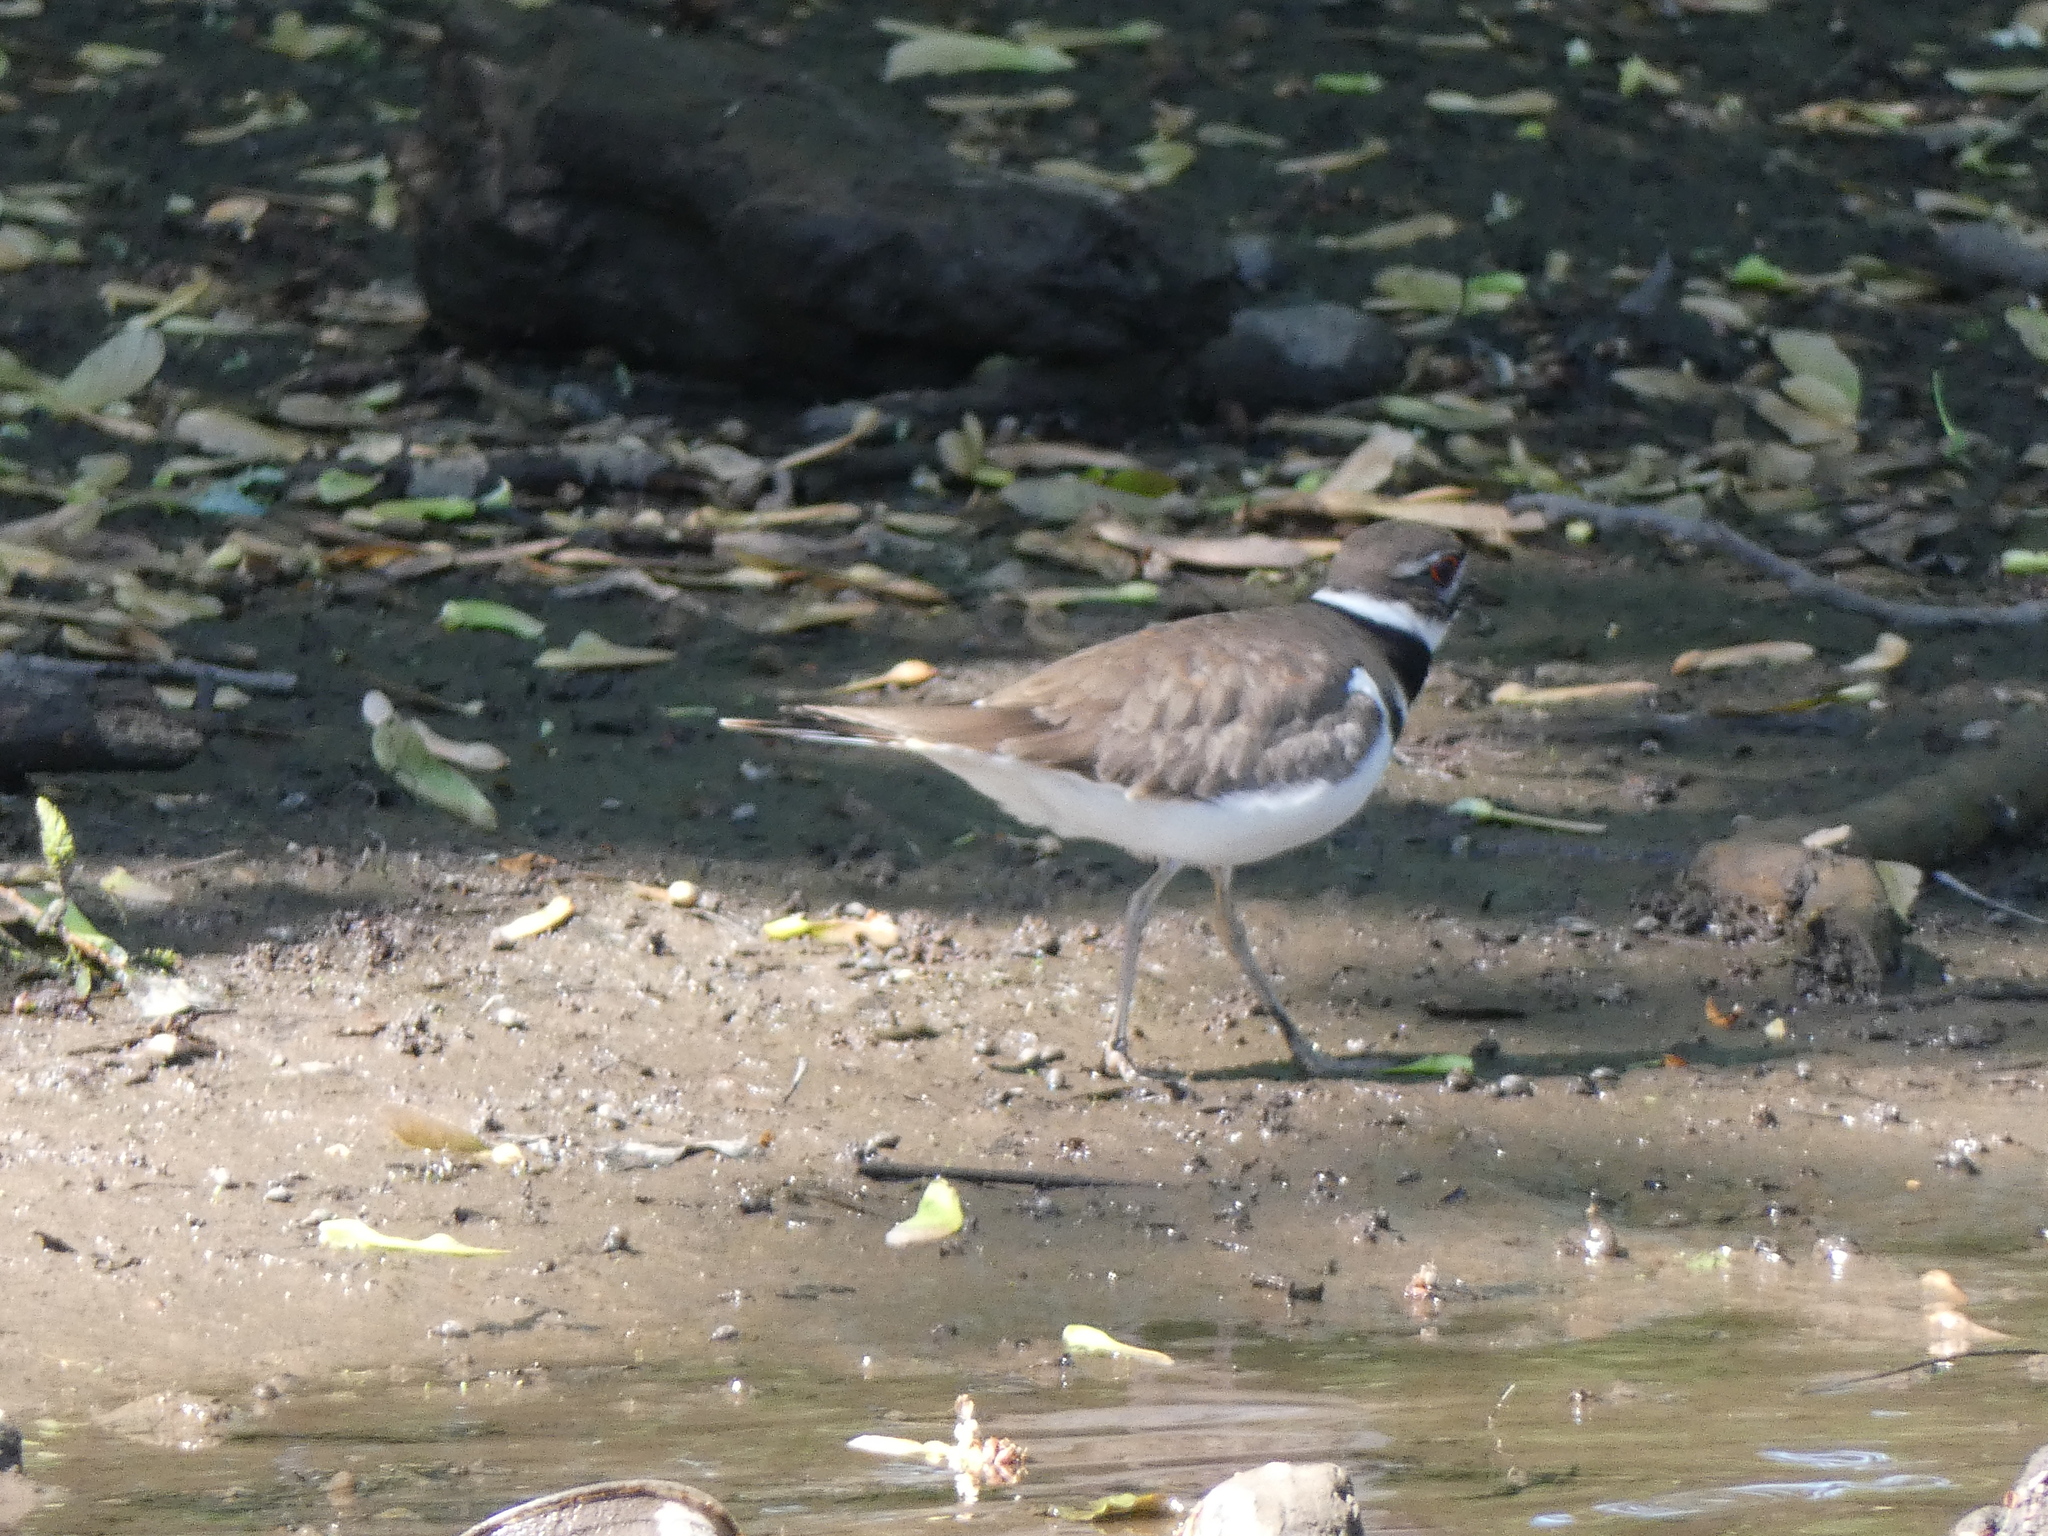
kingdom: Animalia
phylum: Chordata
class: Aves
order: Charadriiformes
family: Charadriidae
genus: Charadrius
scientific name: Charadrius vociferus
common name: Killdeer
